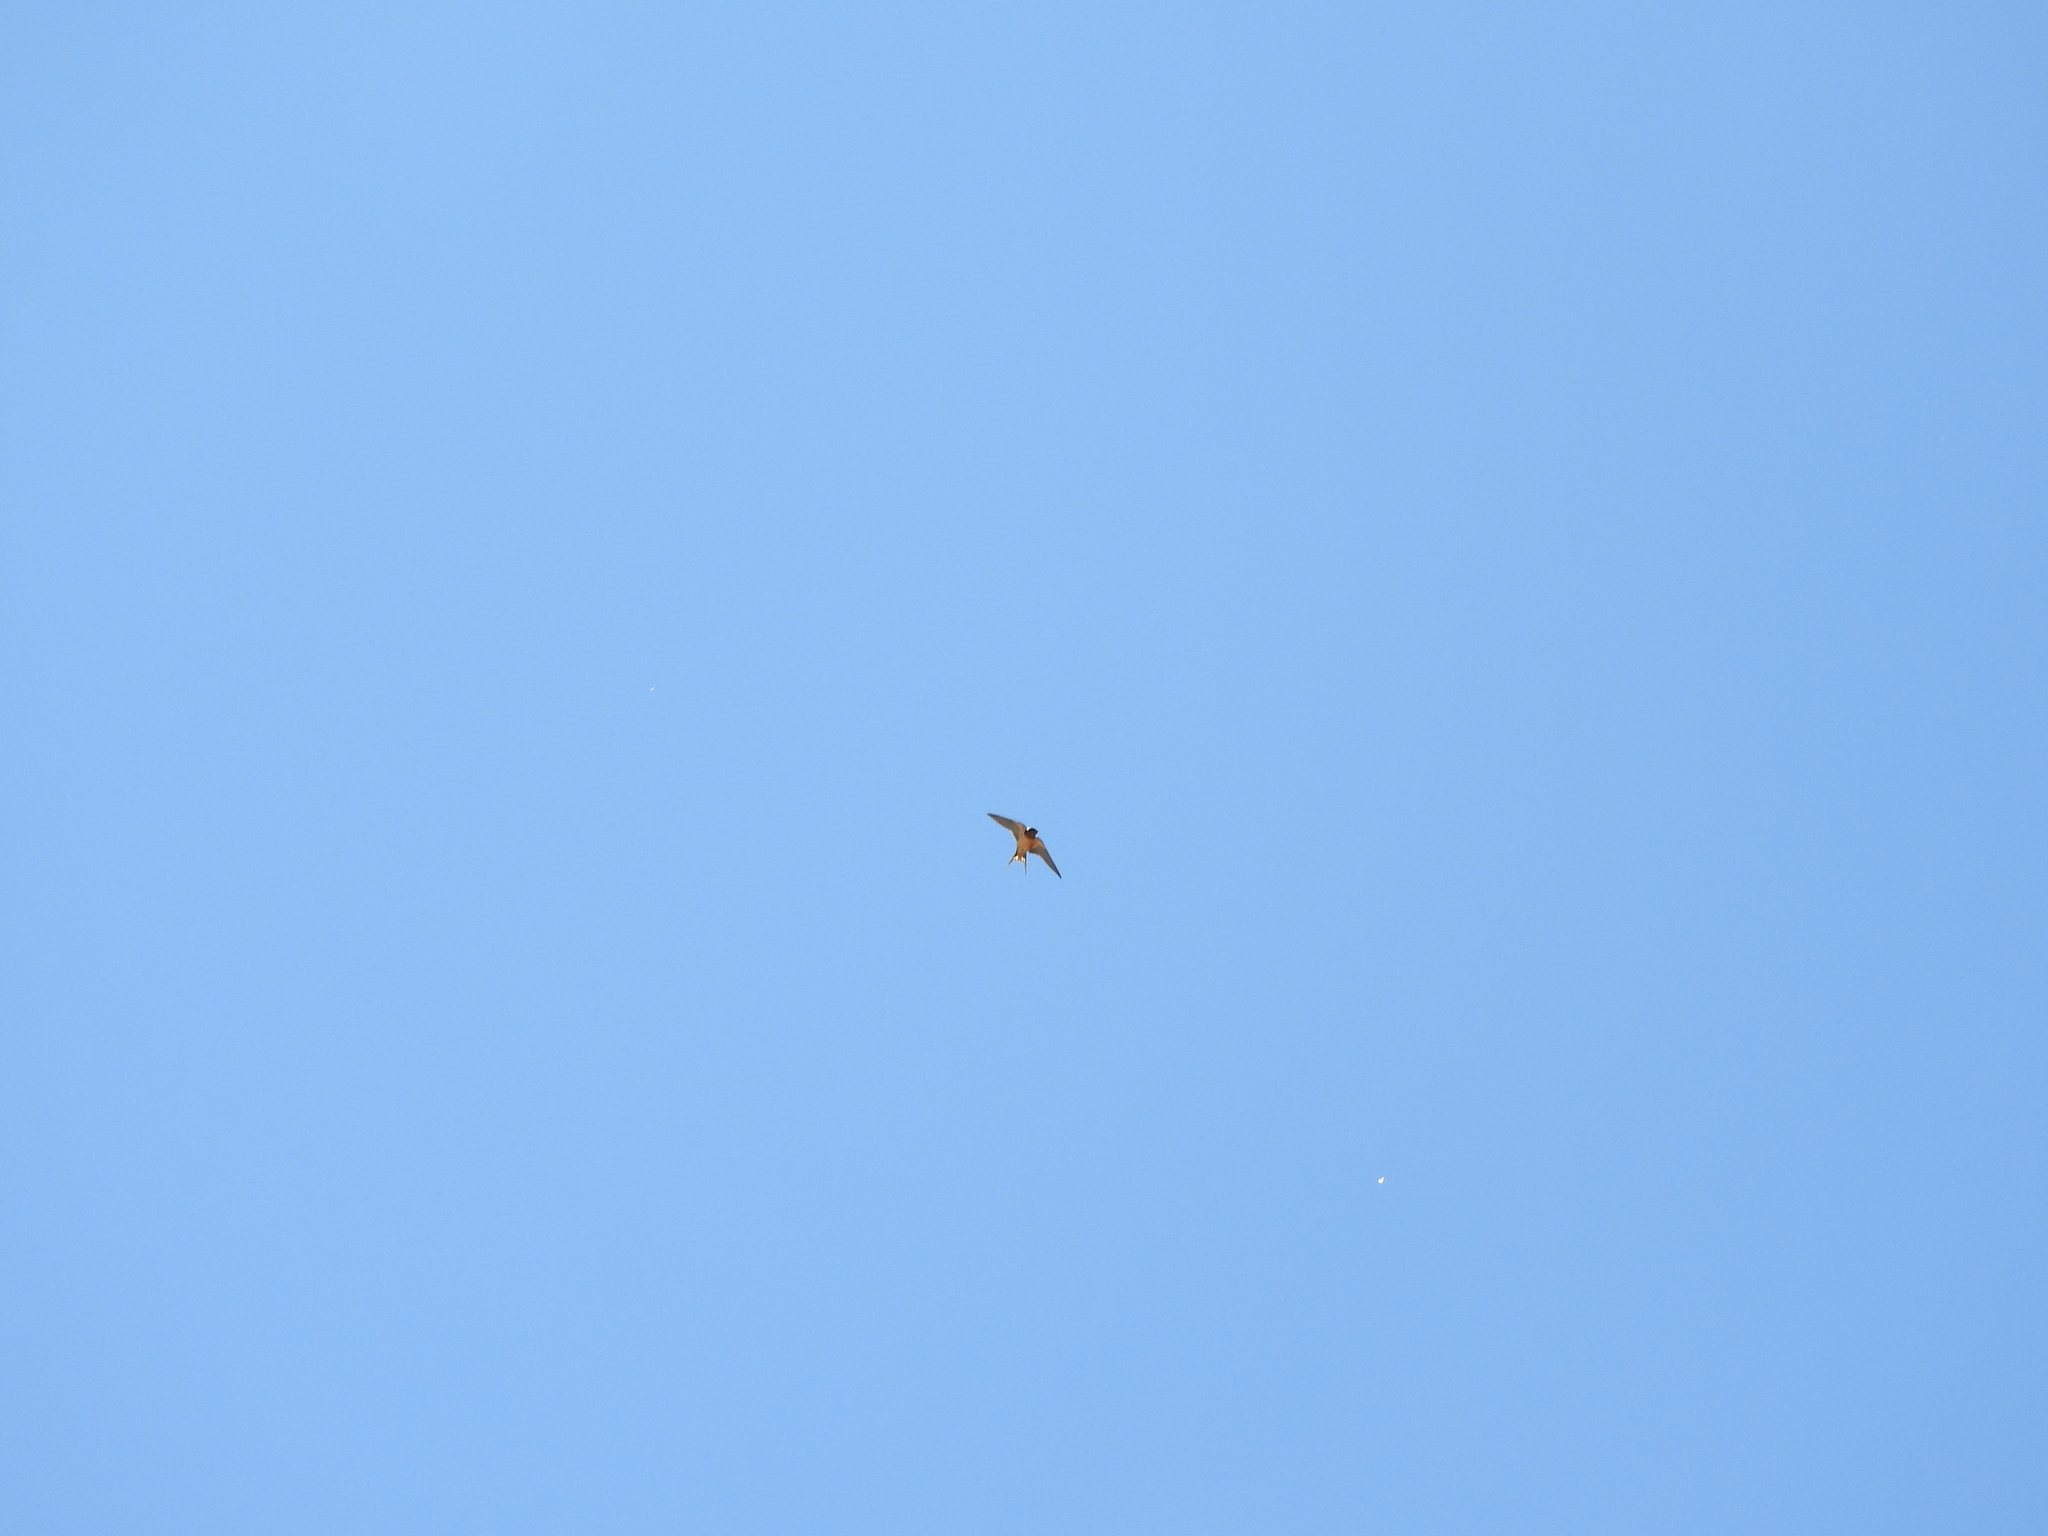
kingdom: Animalia
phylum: Chordata
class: Aves
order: Passeriformes
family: Hirundinidae
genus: Hirundo
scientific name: Hirundo rustica
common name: Barn swallow
